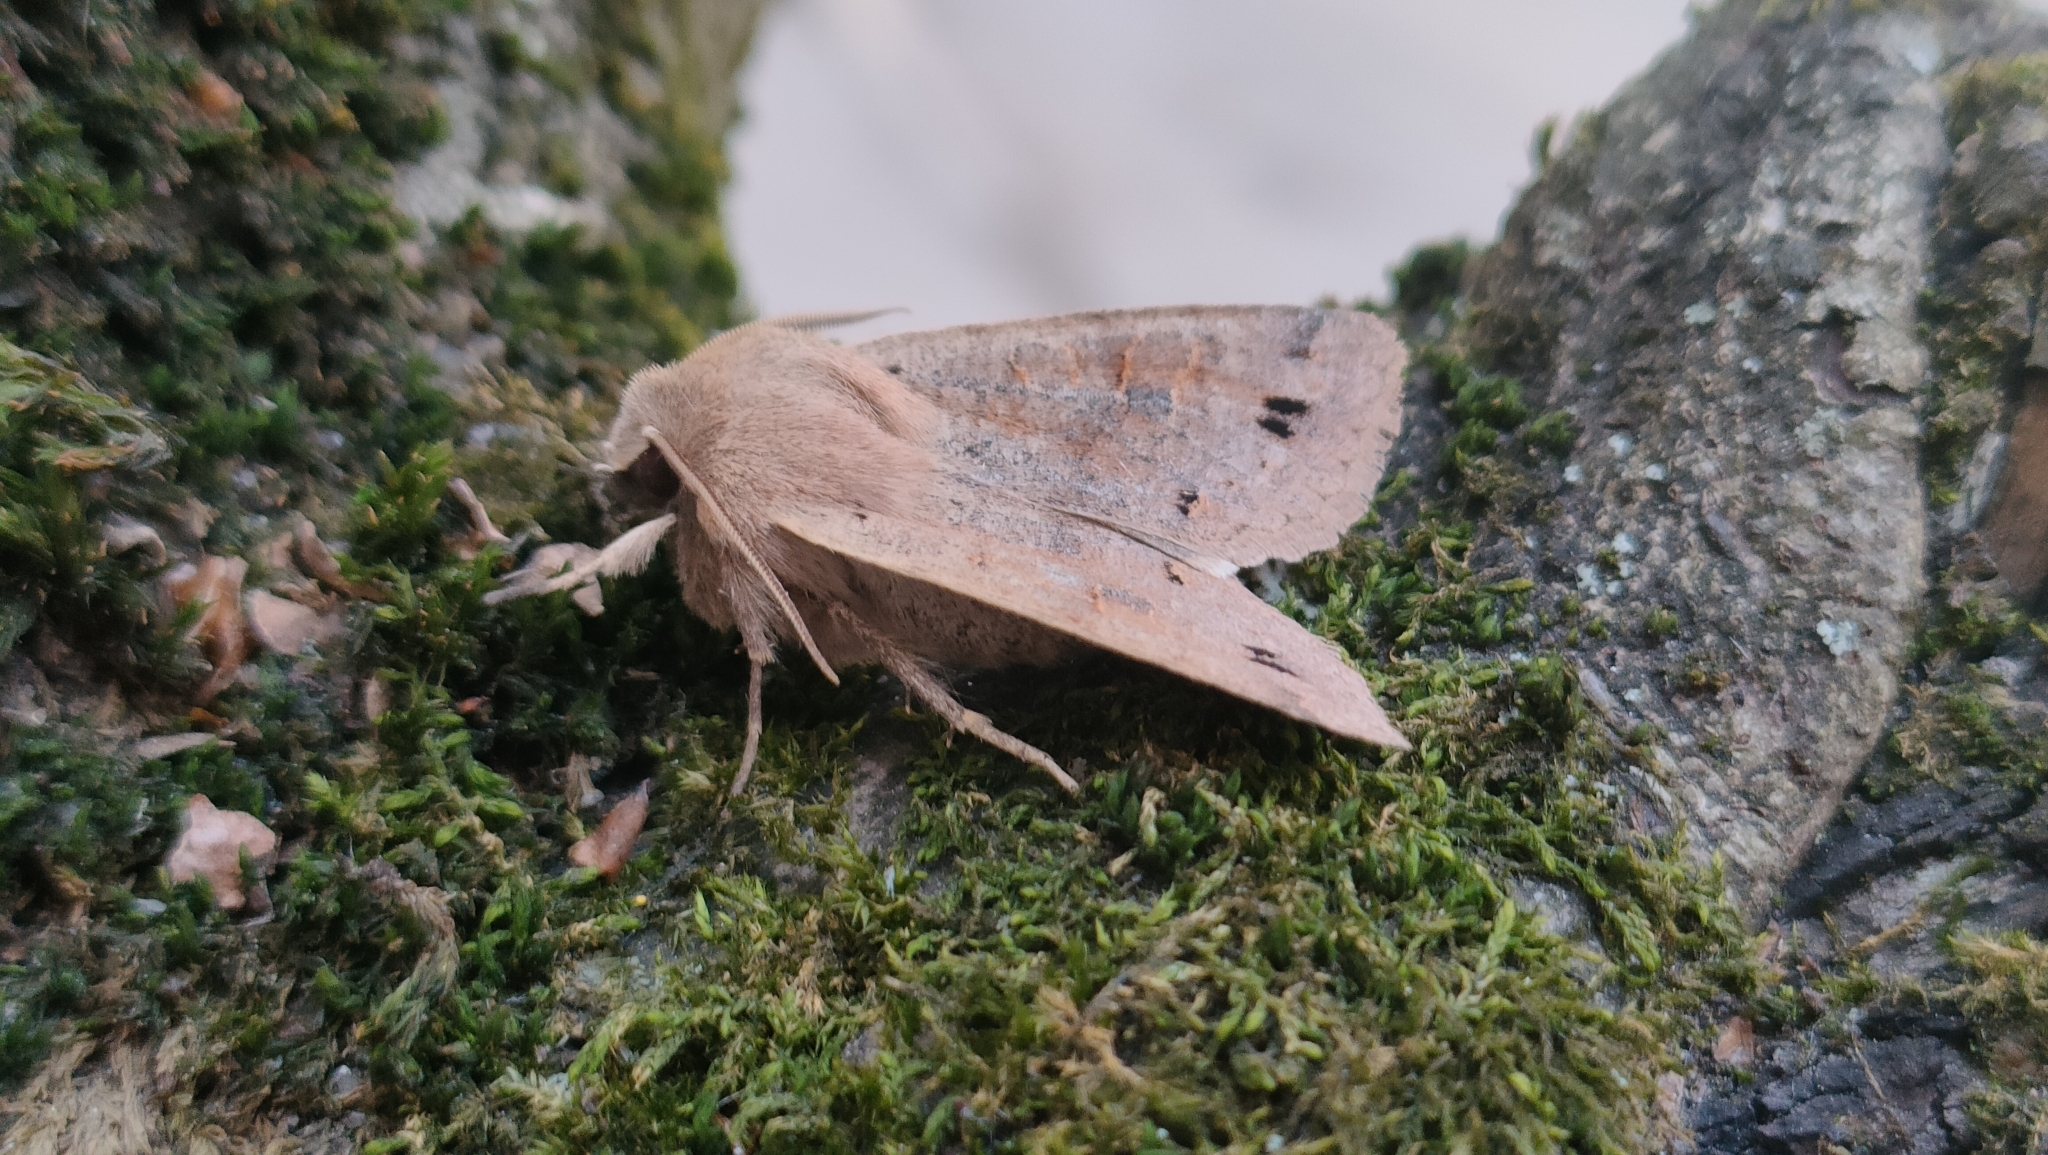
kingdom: Animalia
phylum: Arthropoda
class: Insecta
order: Lepidoptera
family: Noctuidae
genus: Anorthoa
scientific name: Anorthoa munda
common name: Twin-spotted quaker
